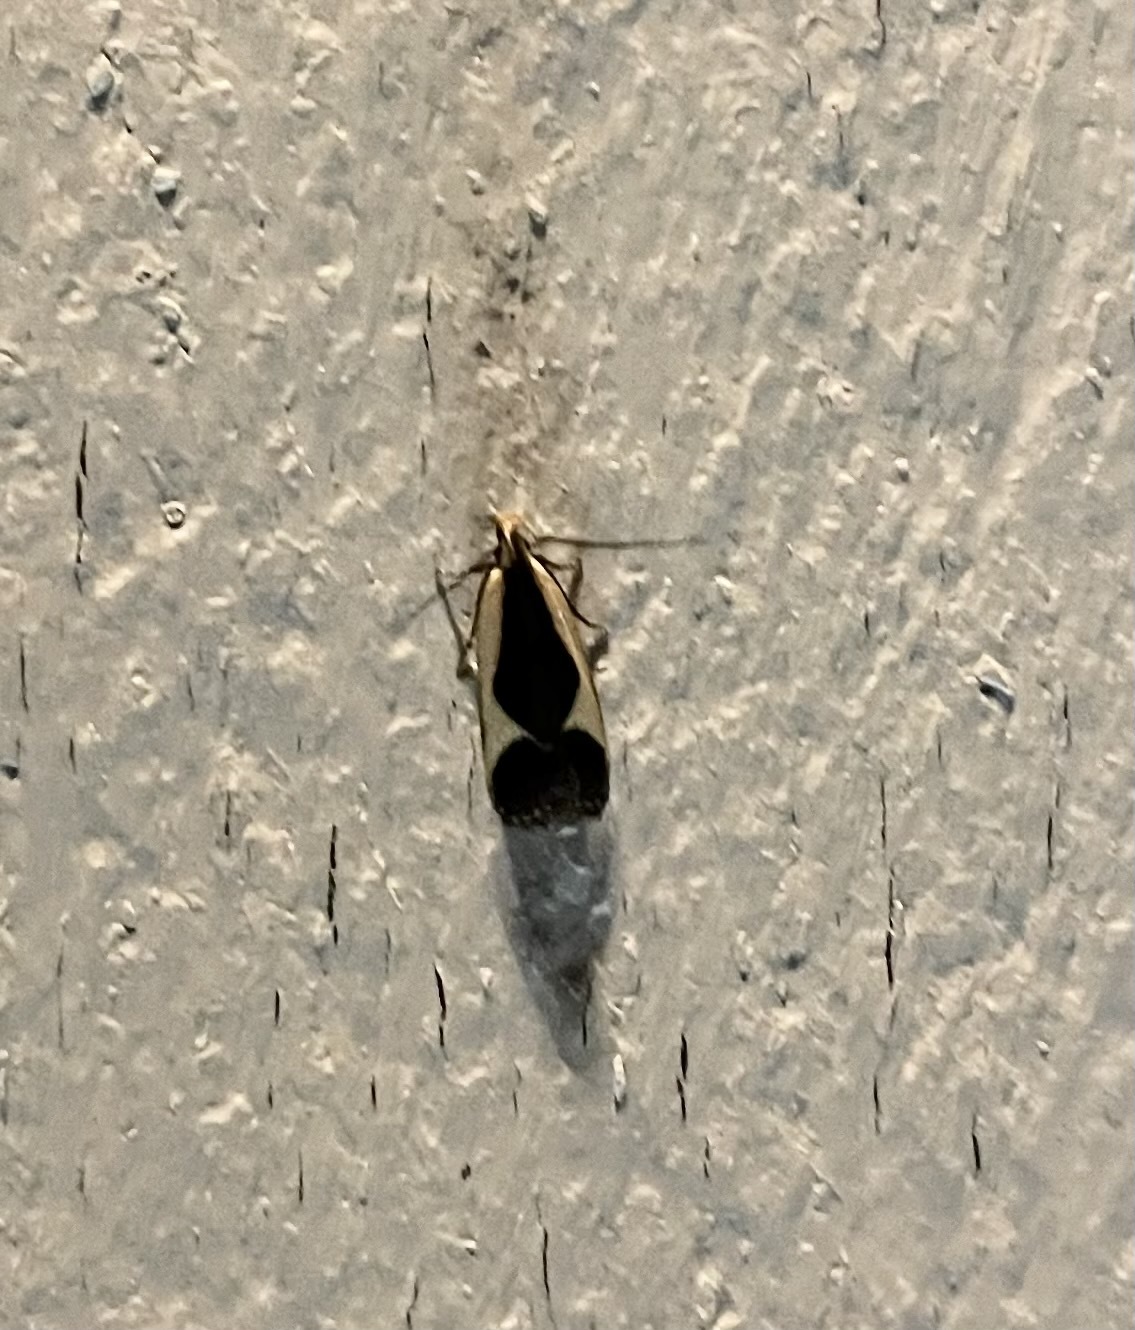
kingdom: Animalia
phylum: Arthropoda
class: Insecta
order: Lepidoptera
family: Gelechiidae
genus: Dichomeris
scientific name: Dichomeris flavocostella
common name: Cream-edged dichomeris moth
